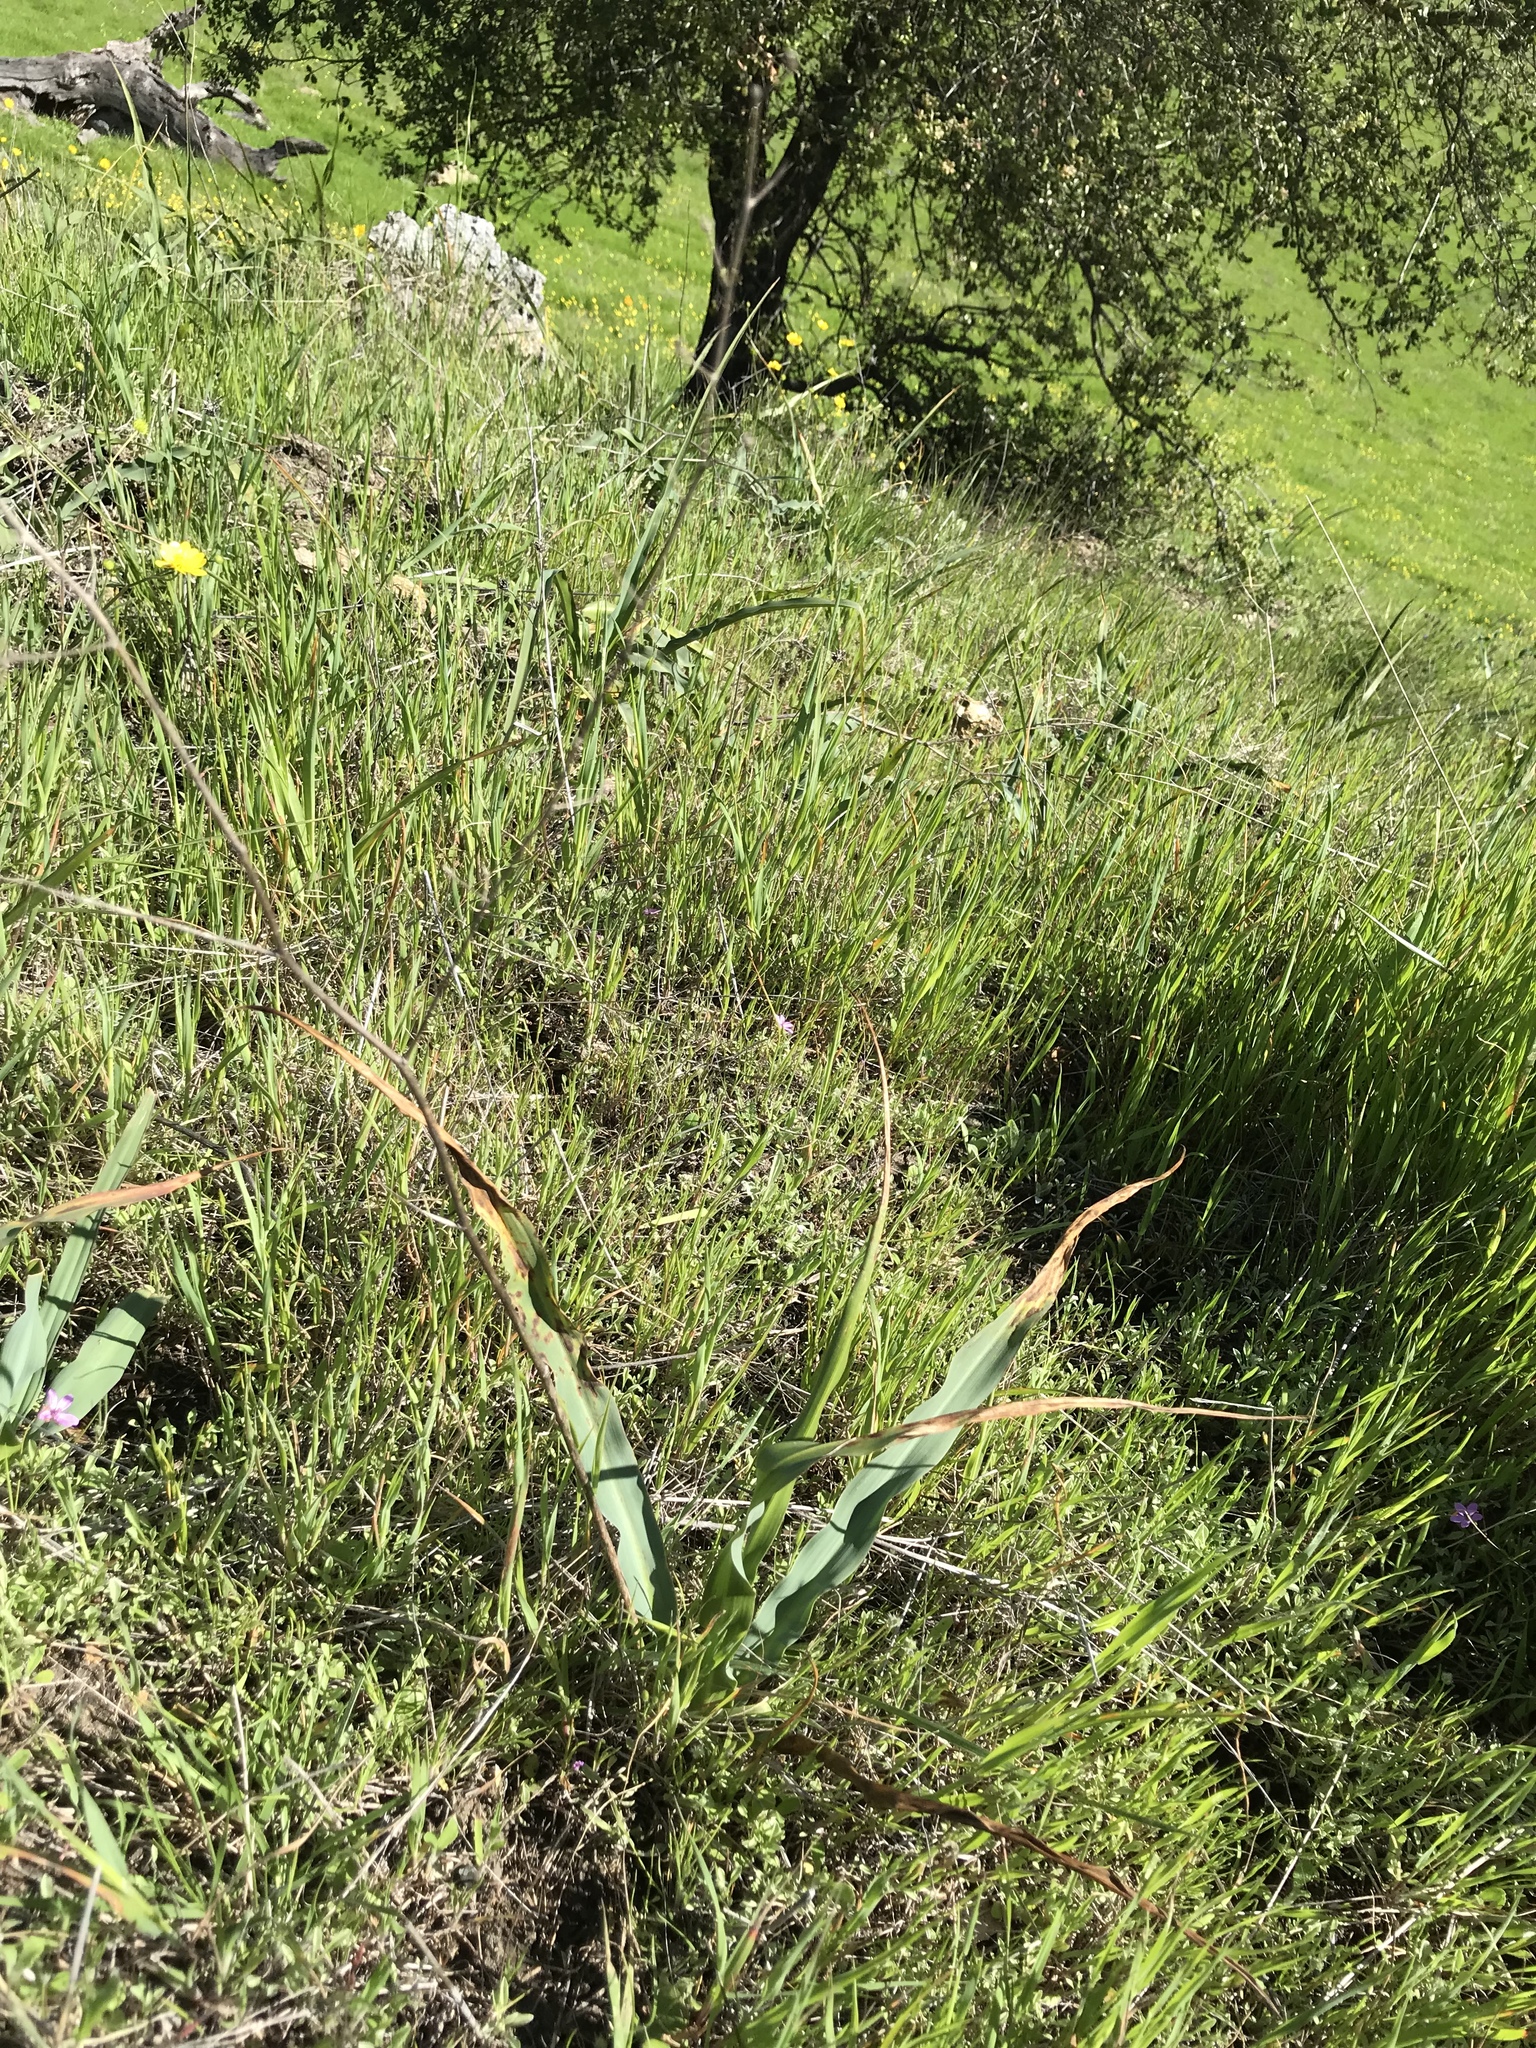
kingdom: Plantae
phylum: Tracheophyta
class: Liliopsida
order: Asparagales
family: Asparagaceae
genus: Chlorogalum
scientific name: Chlorogalum pomeridianum
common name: Amole
